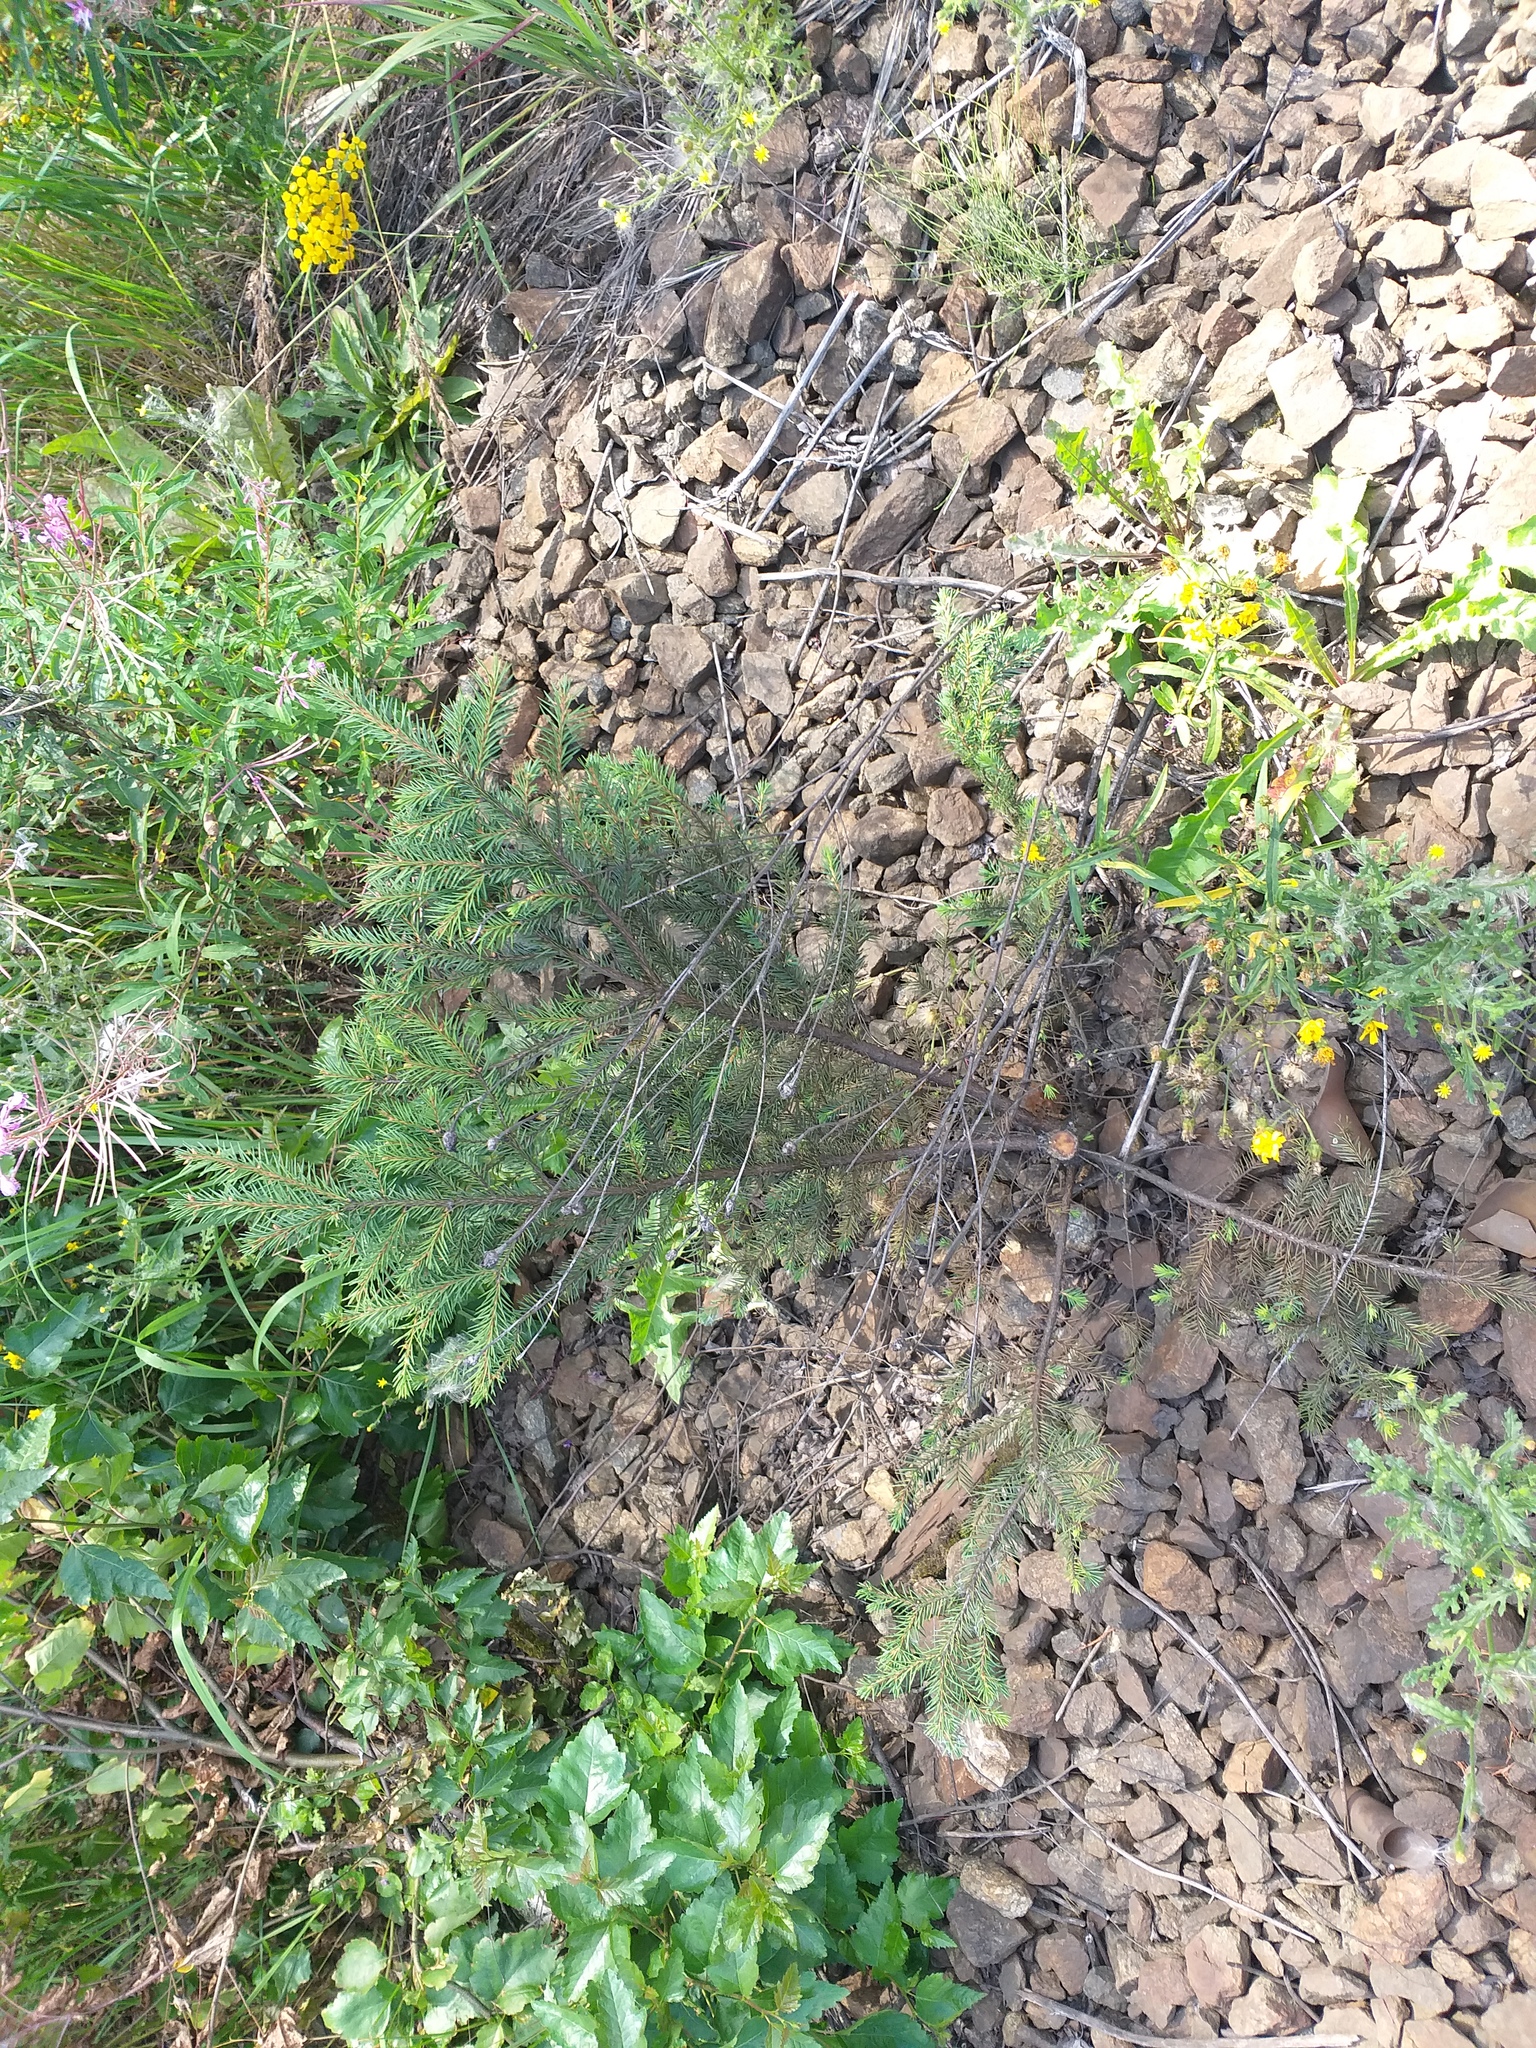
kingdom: Plantae
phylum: Tracheophyta
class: Pinopsida
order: Pinales
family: Pinaceae
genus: Picea
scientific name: Picea abies
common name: Norway spruce
